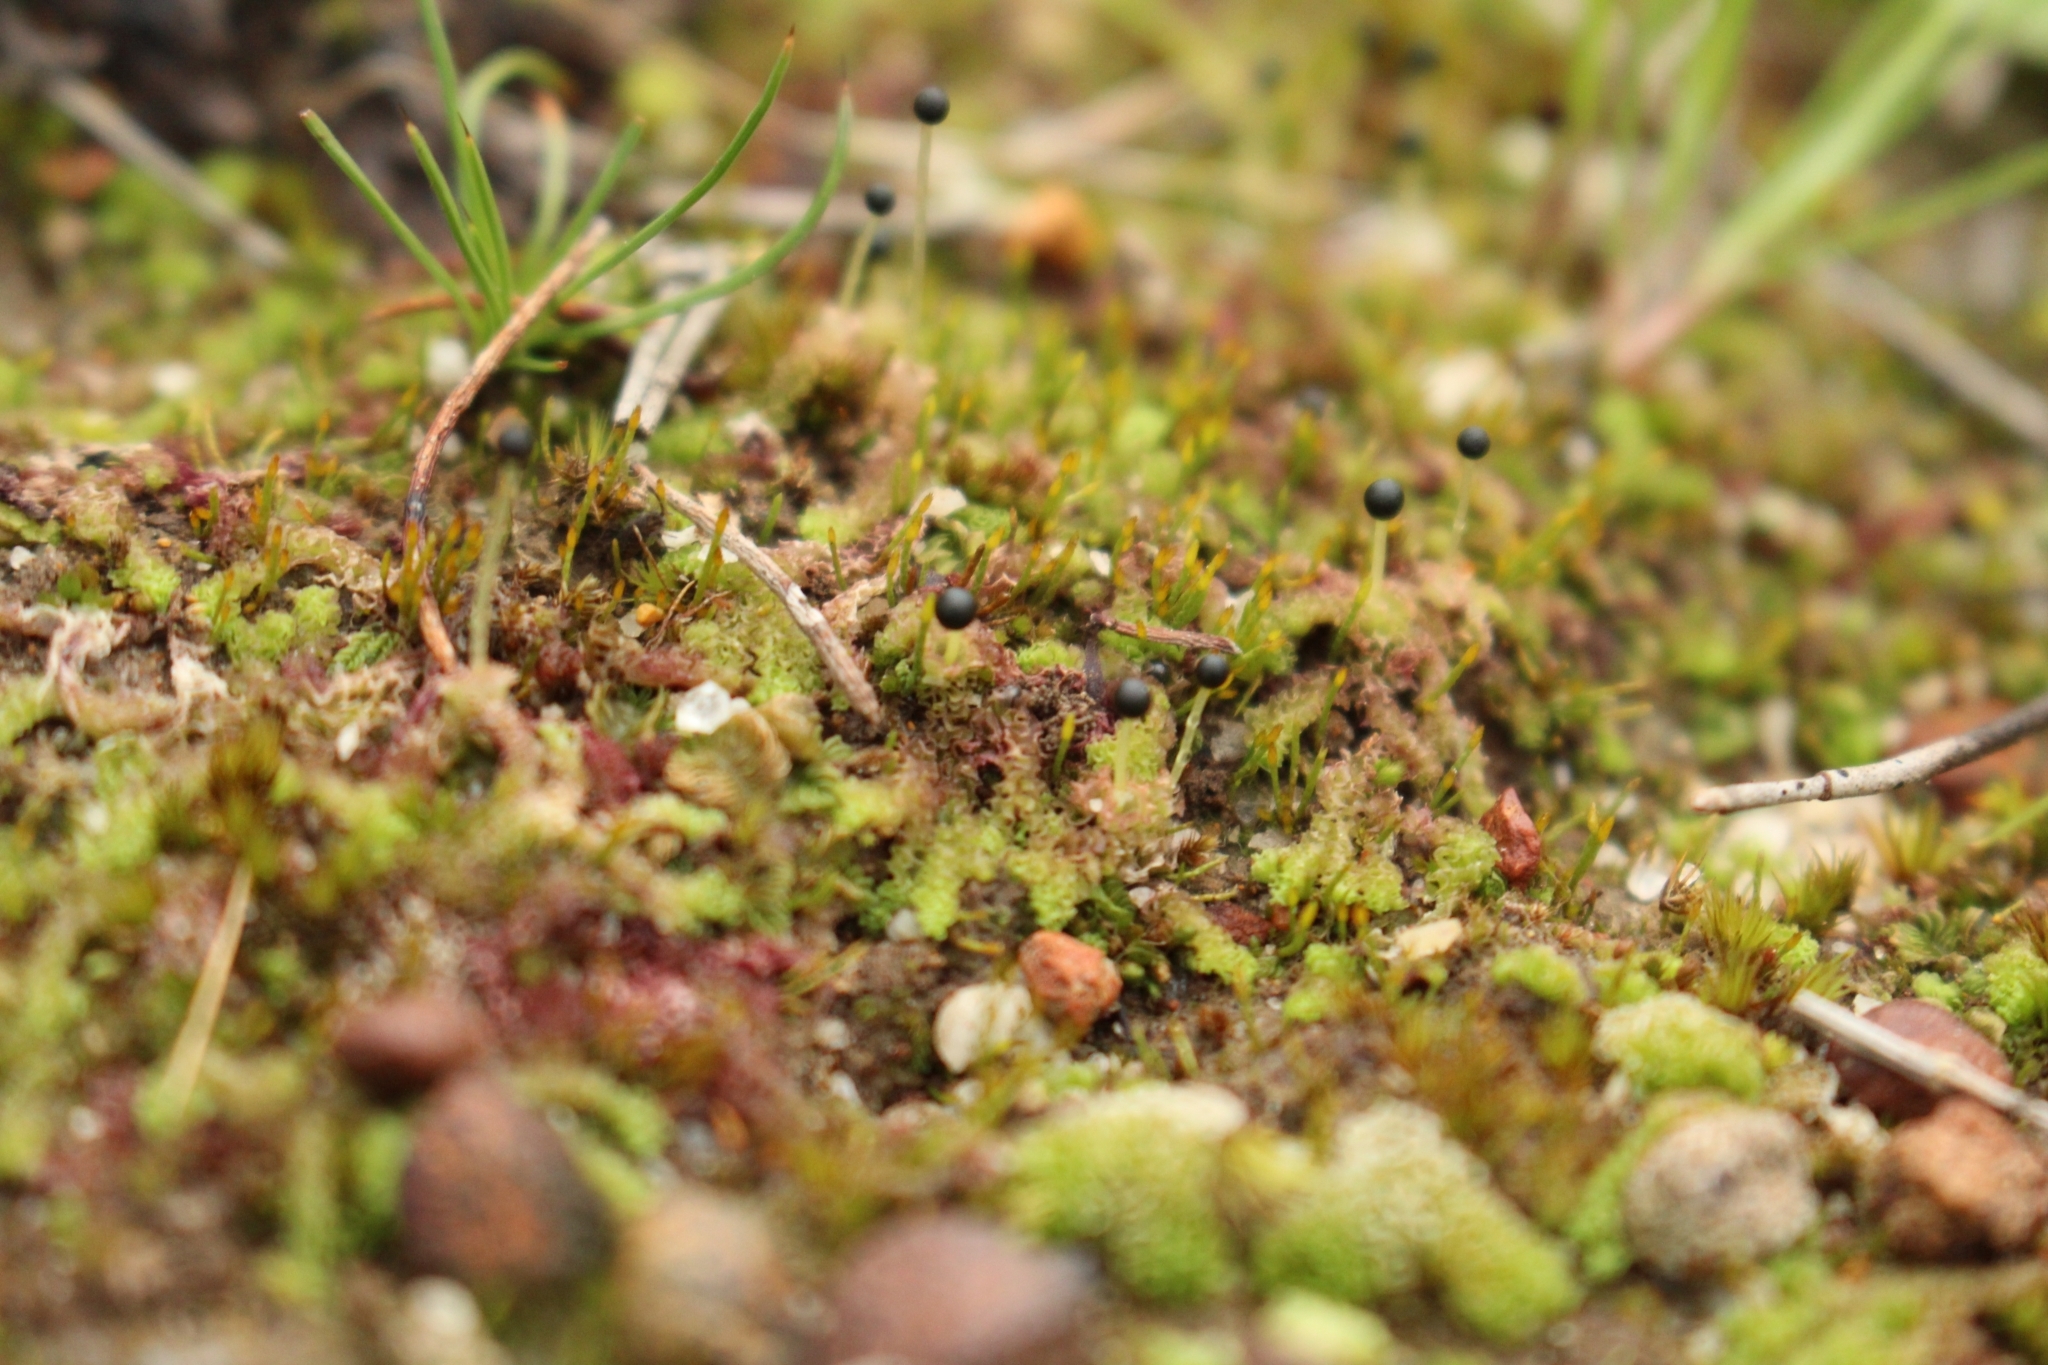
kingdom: Plantae
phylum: Marchantiophyta
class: Jungermanniopsida
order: Fossombroniales
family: Fossombroniaceae
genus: Fossombronia
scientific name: Fossombronia
